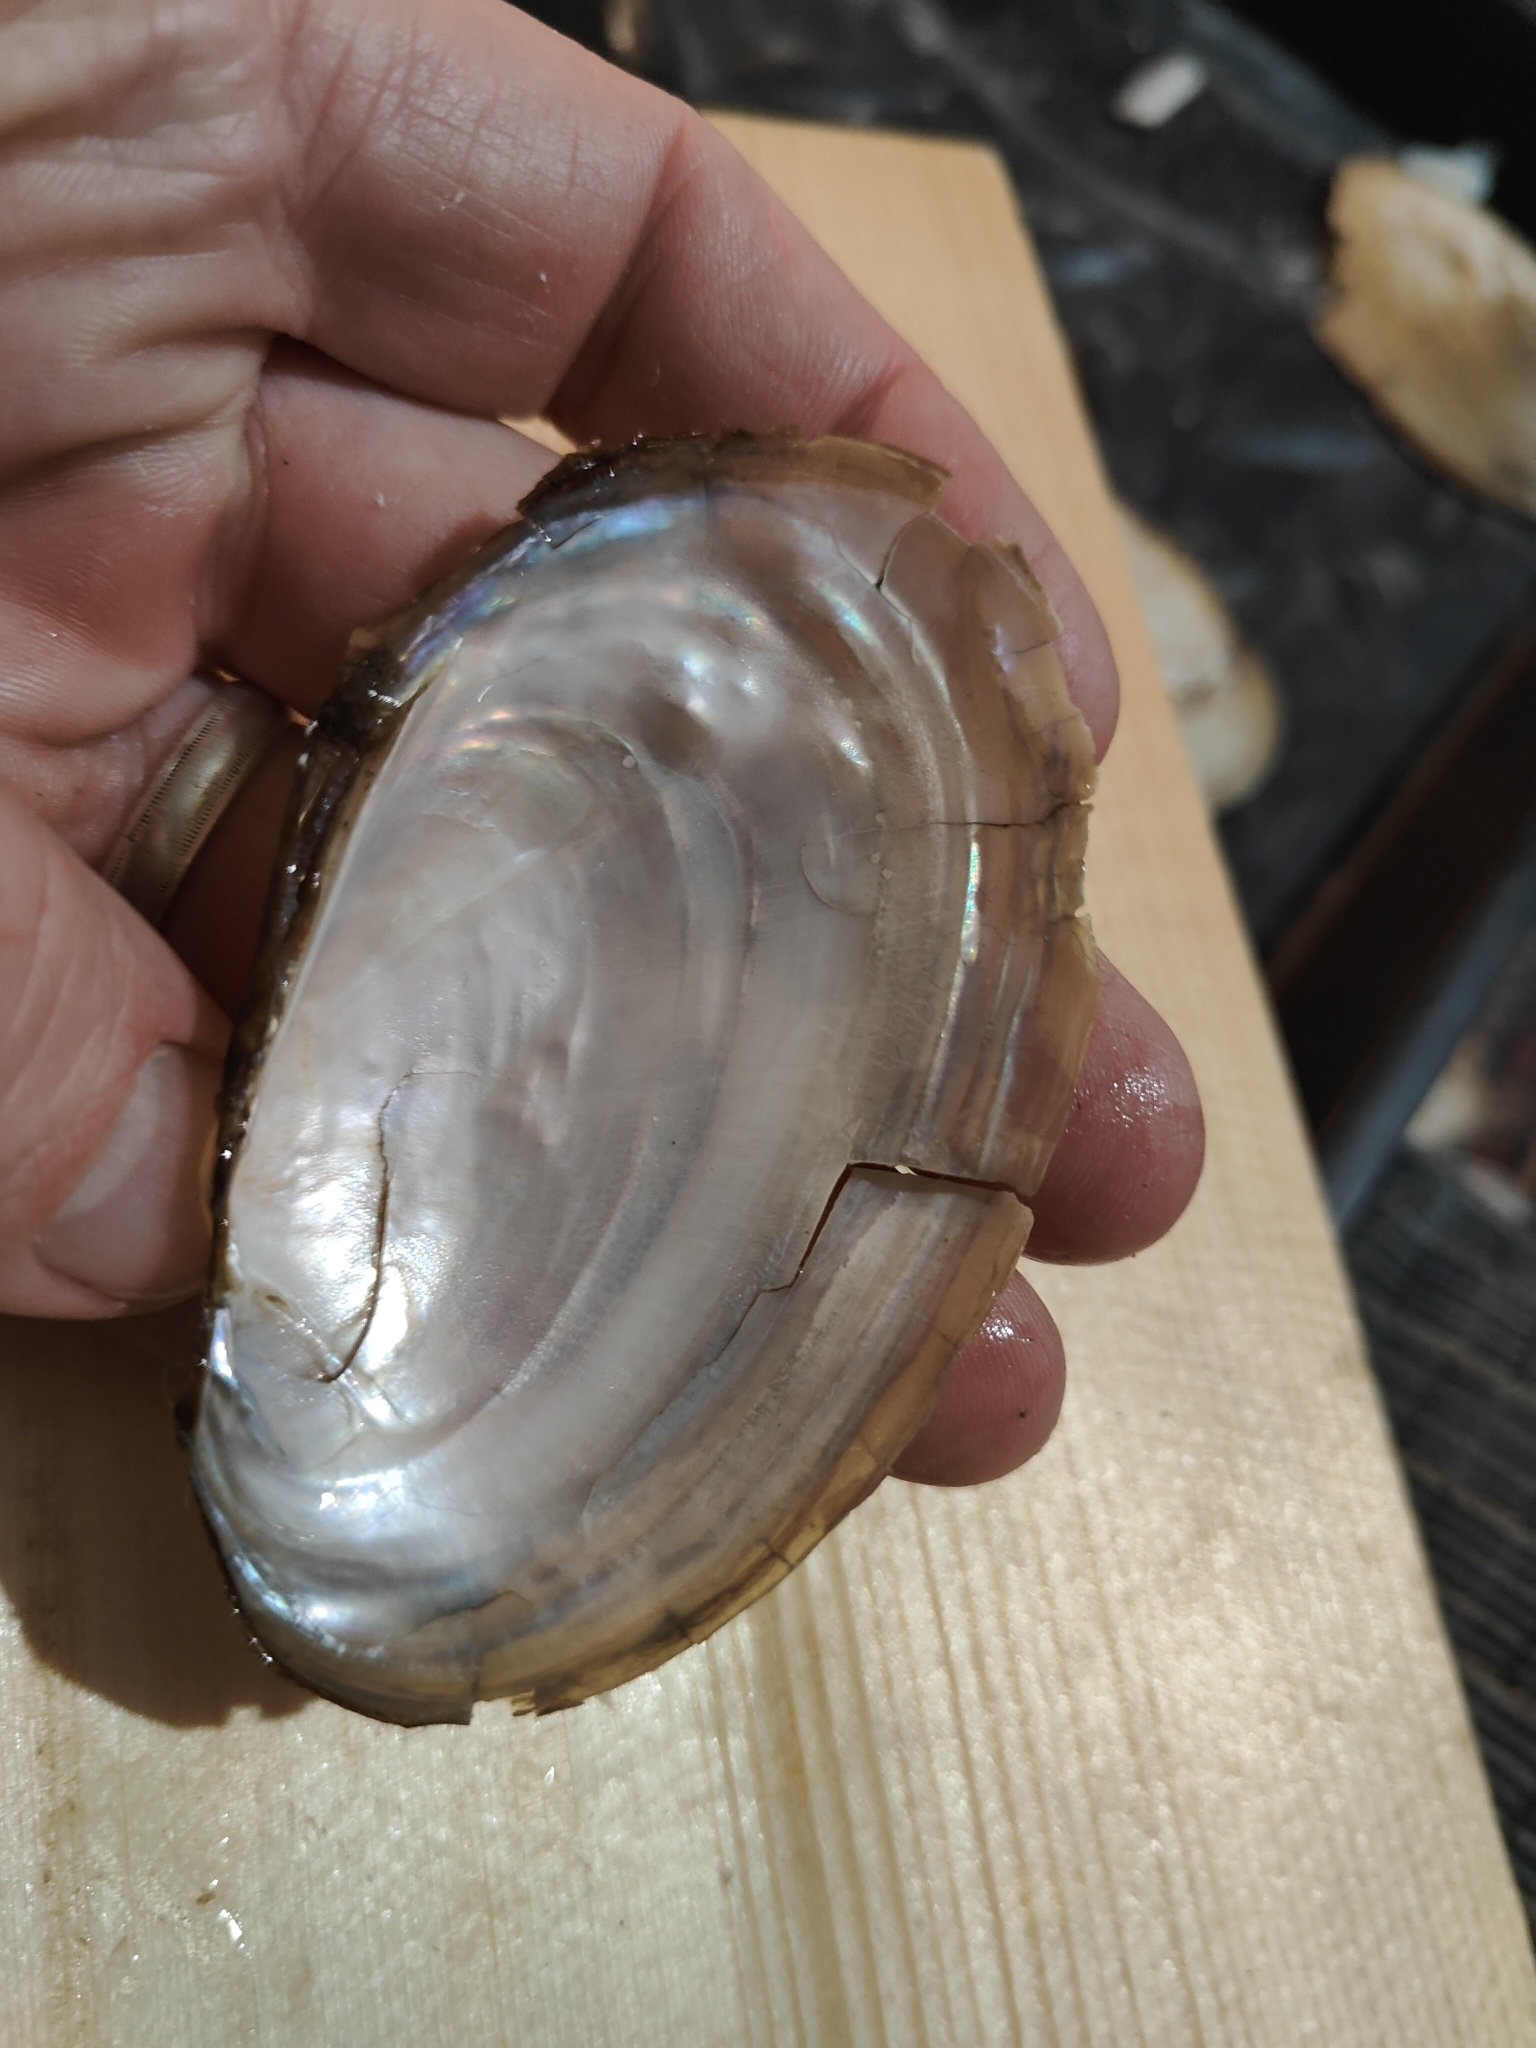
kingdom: Animalia
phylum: Mollusca
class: Bivalvia
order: Unionida
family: Unionidae
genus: Potamilus
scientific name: Potamilus fragilis
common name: Fragile papershell
